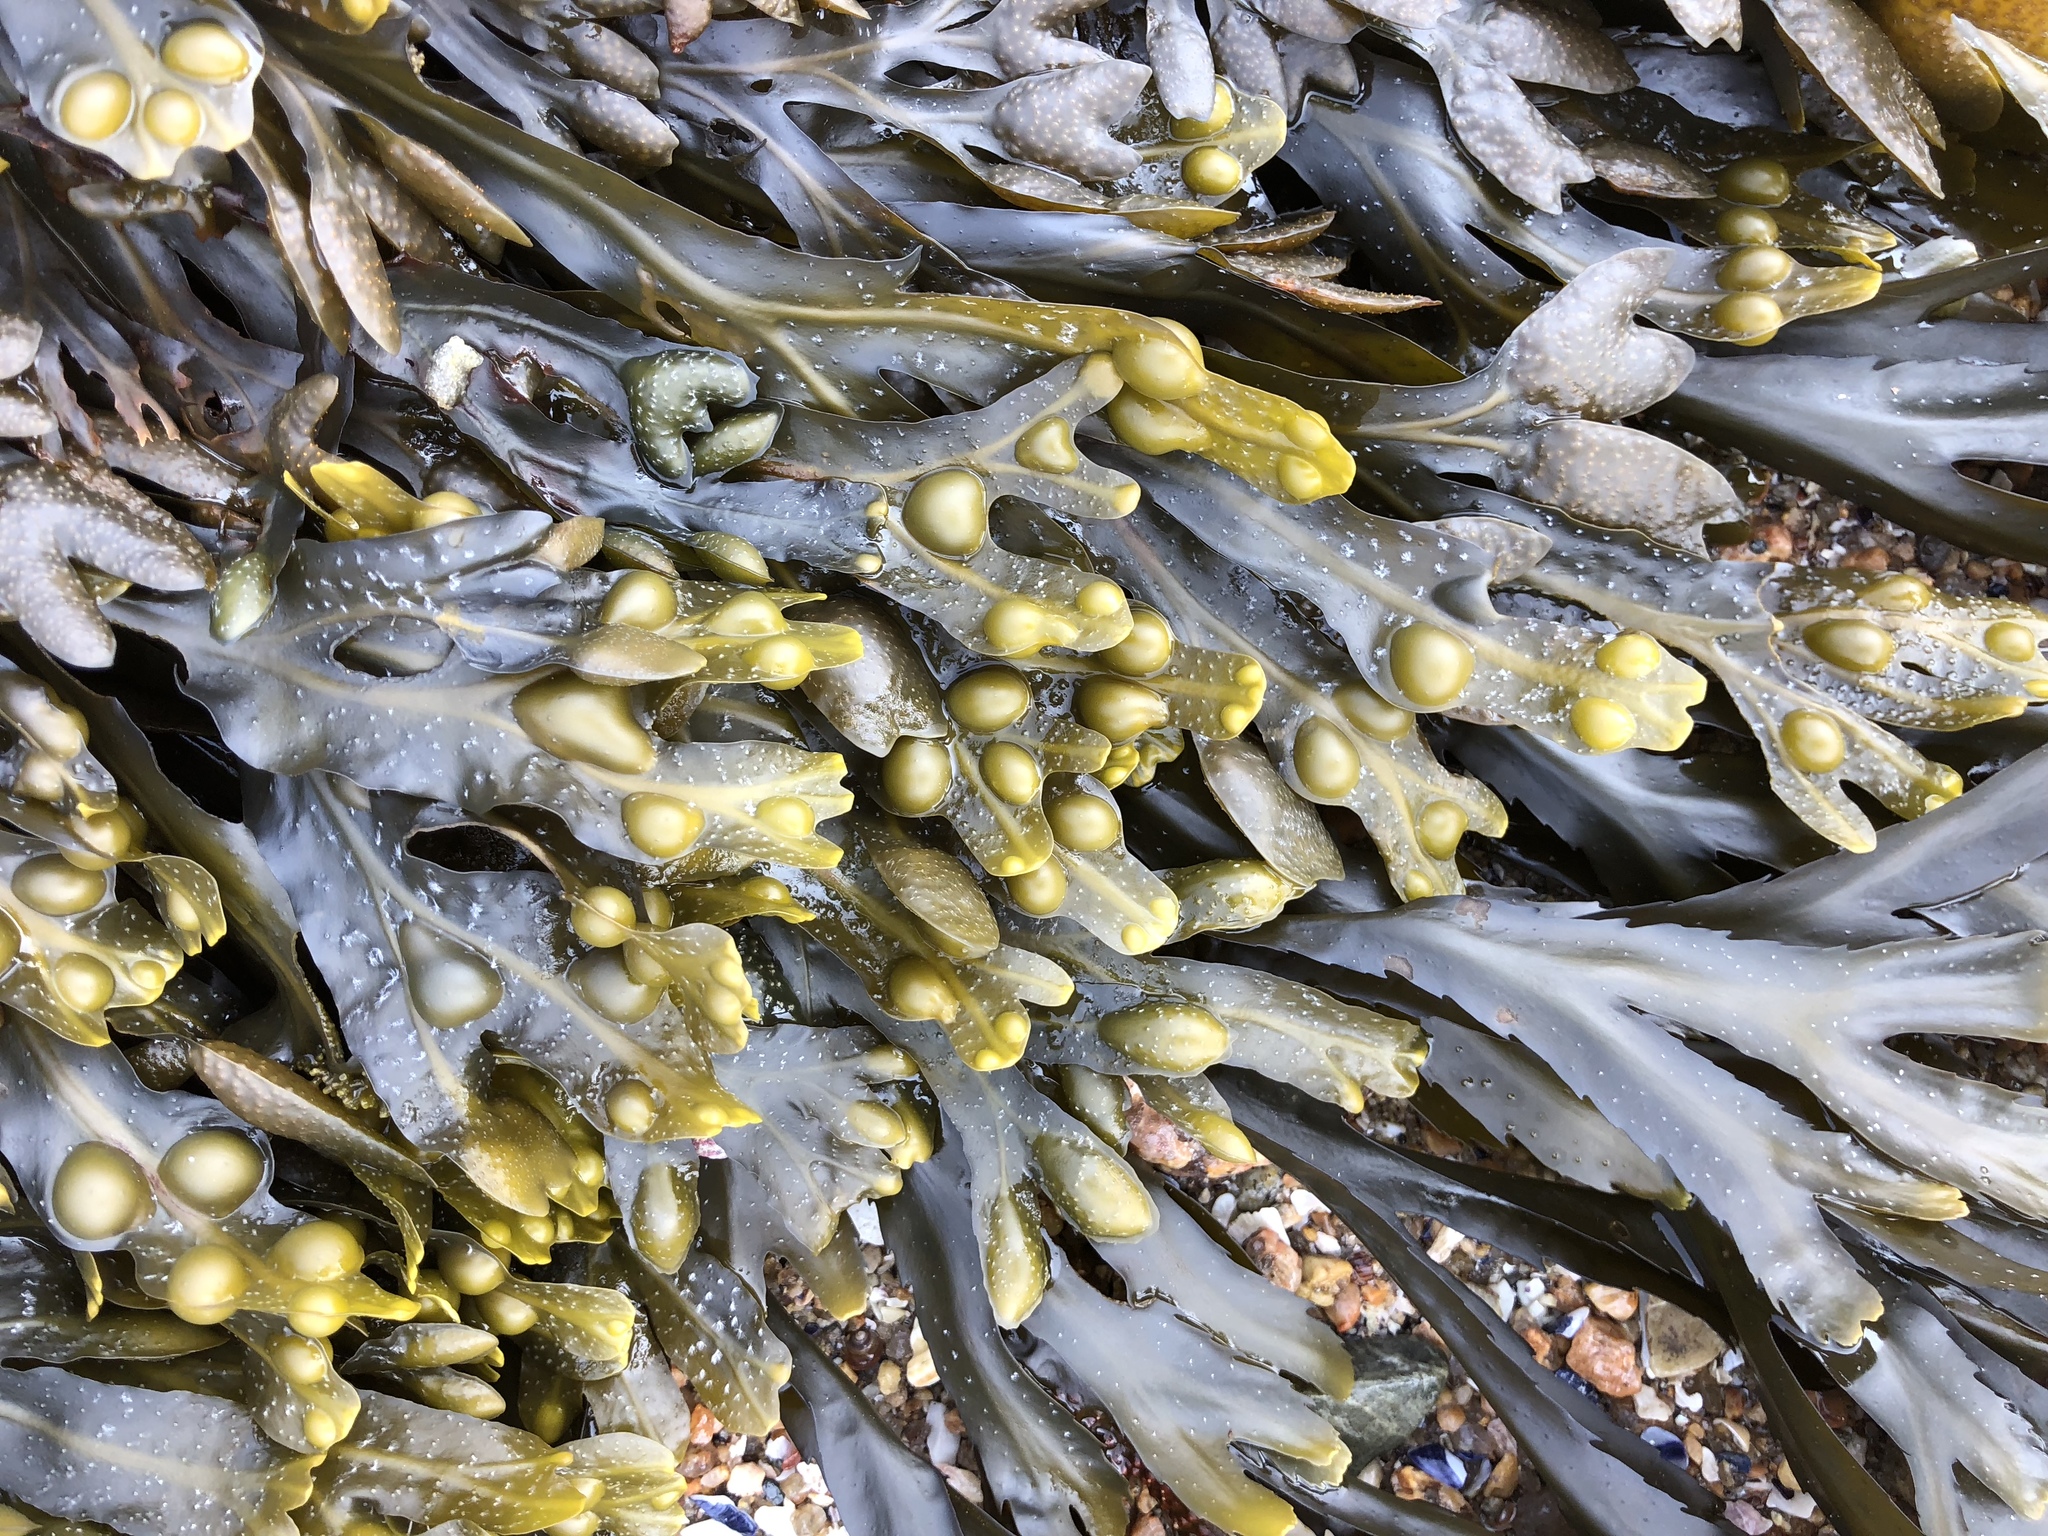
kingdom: Chromista
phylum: Ochrophyta
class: Phaeophyceae
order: Fucales
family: Fucaceae
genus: Fucus
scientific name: Fucus vesiculosus
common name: Bladder wrack
